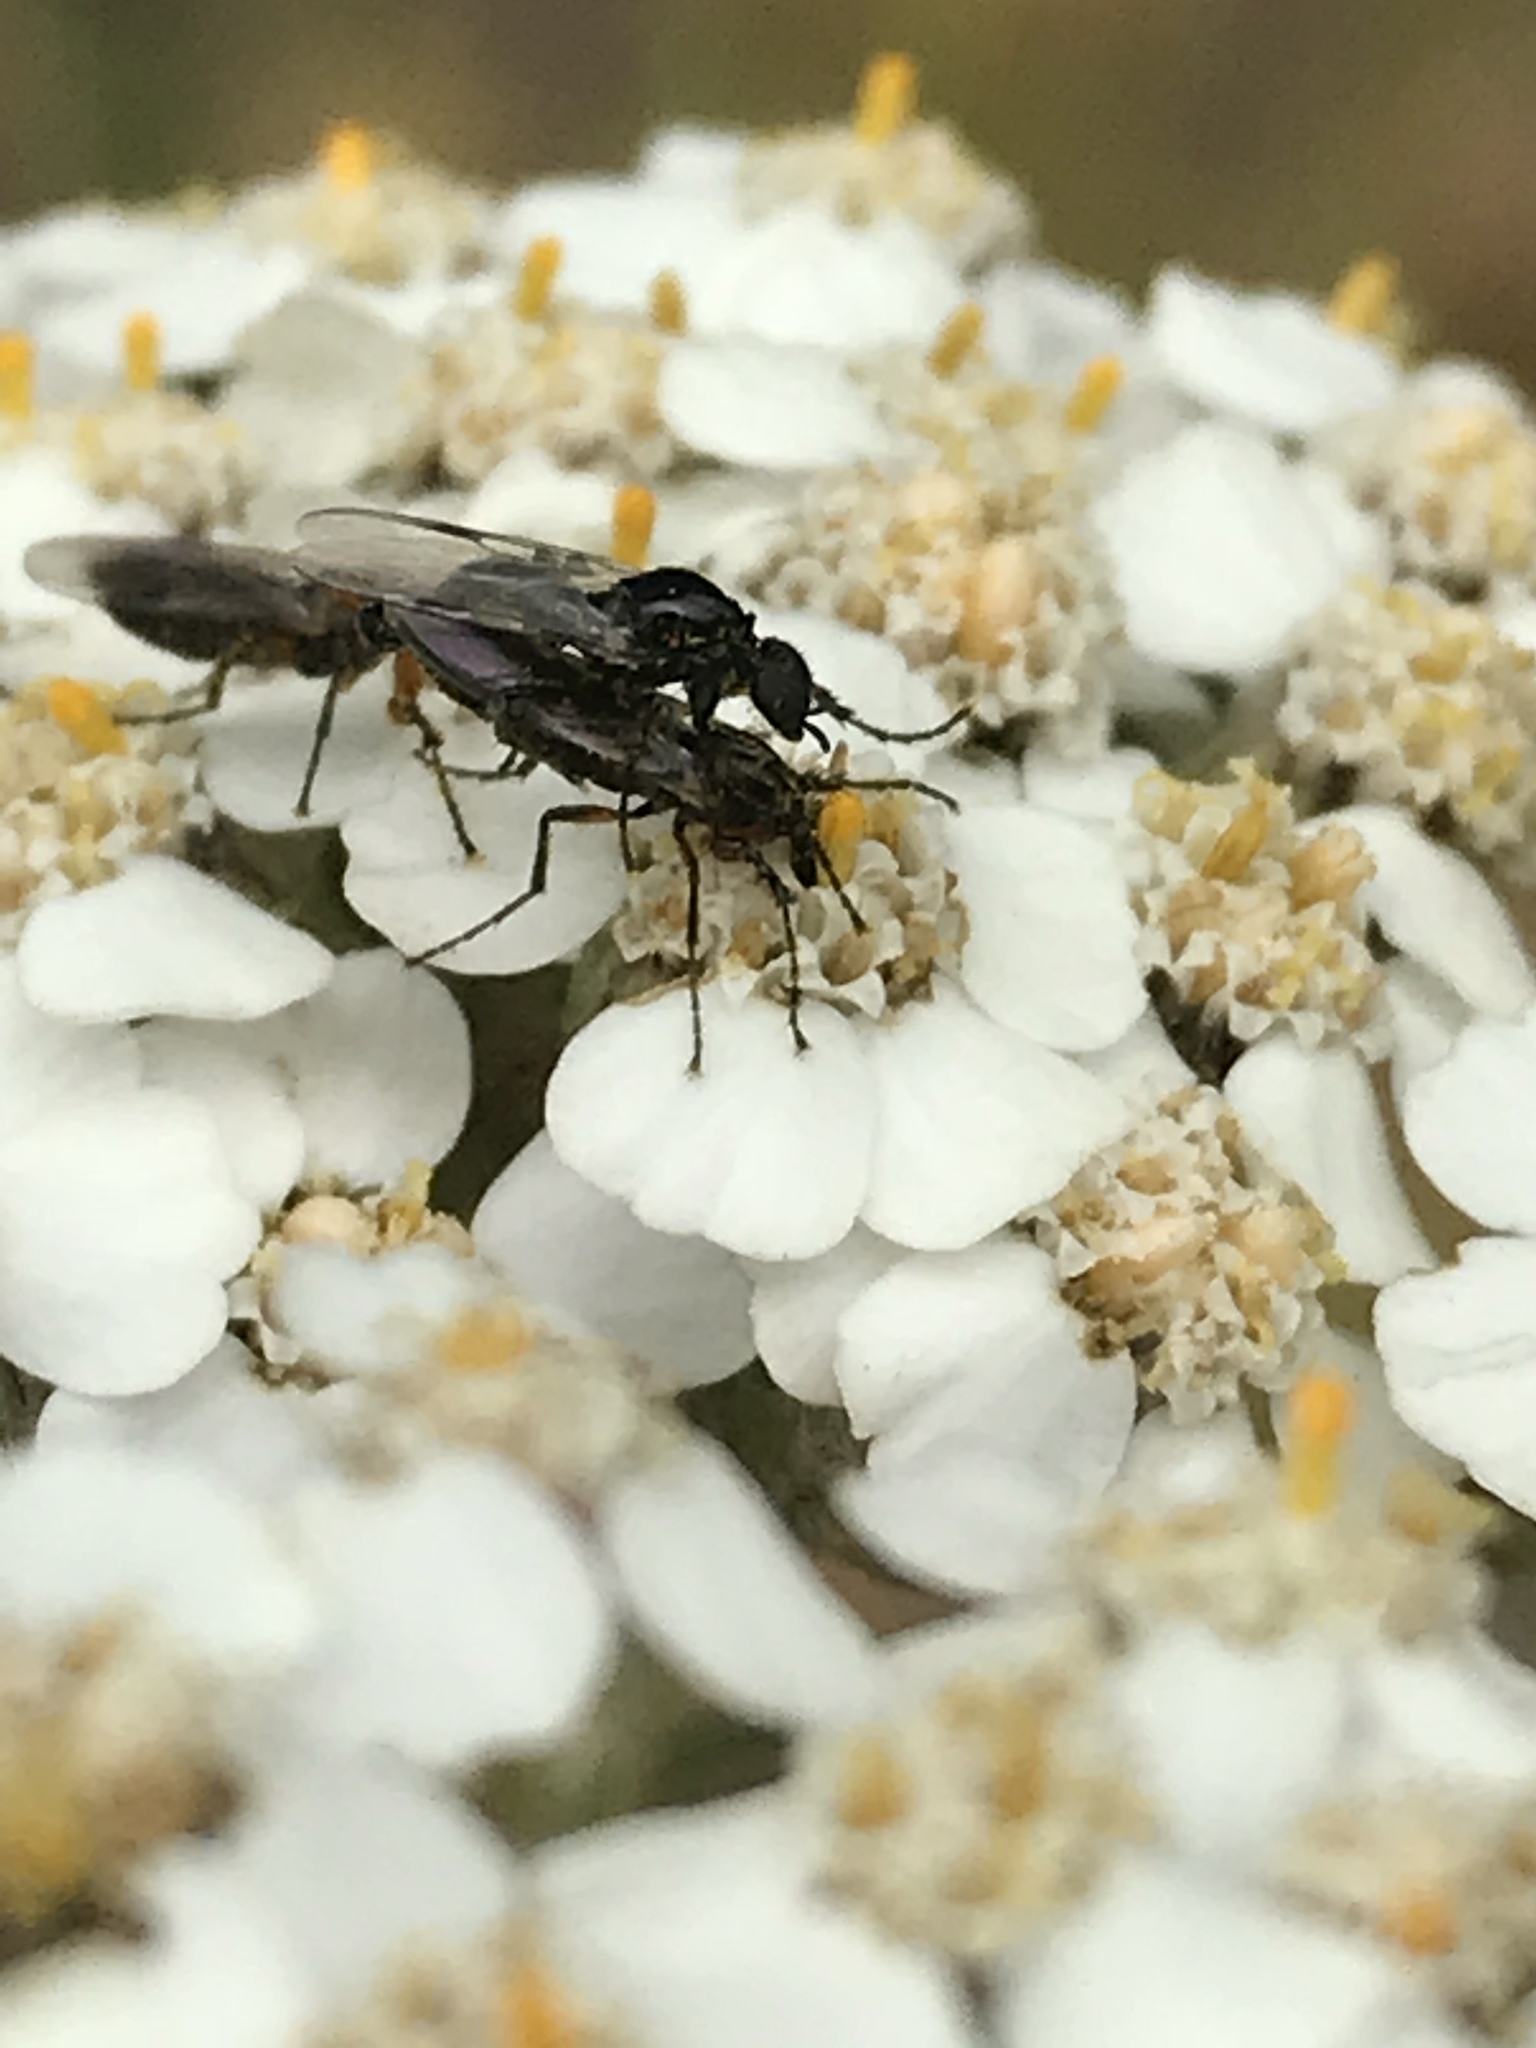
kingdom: Animalia
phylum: Arthropoda
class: Insecta
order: Diptera
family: Bibionidae
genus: Dilophus
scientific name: Dilophus
